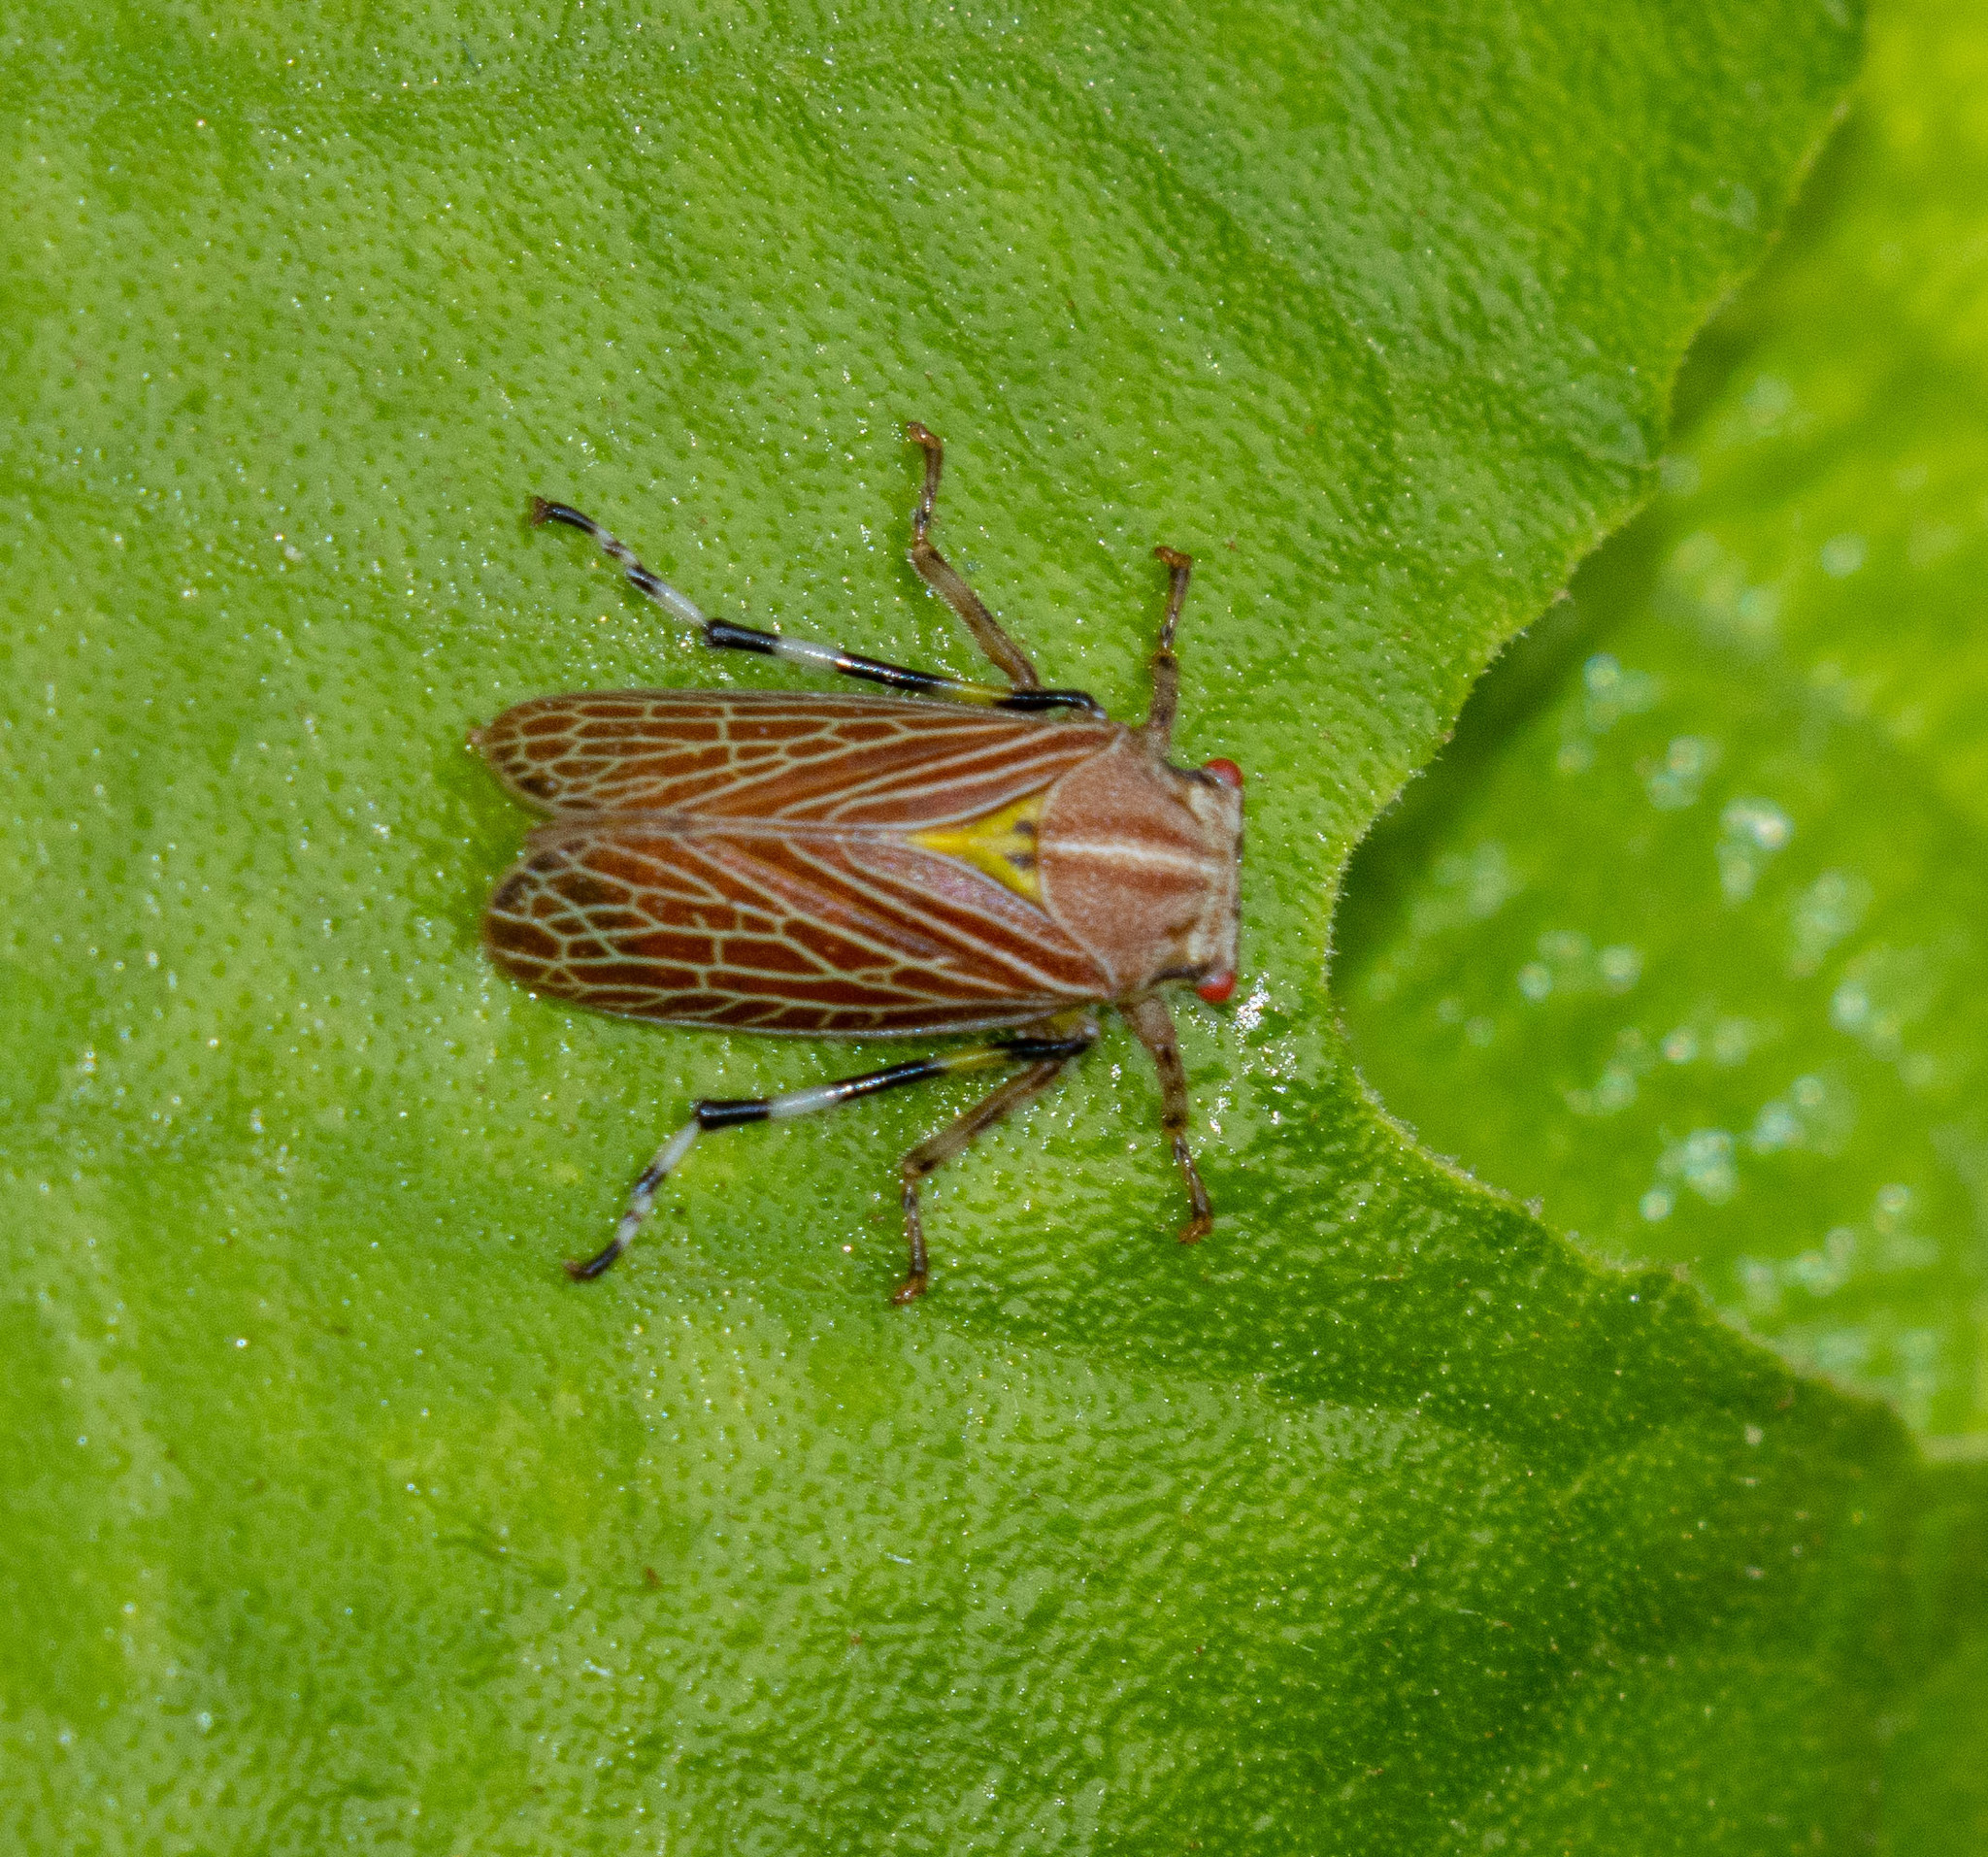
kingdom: Animalia
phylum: Arthropoda
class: Insecta
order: Hemiptera
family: Aetalionidae
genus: Aetalion
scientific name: Aetalion reticulatum
